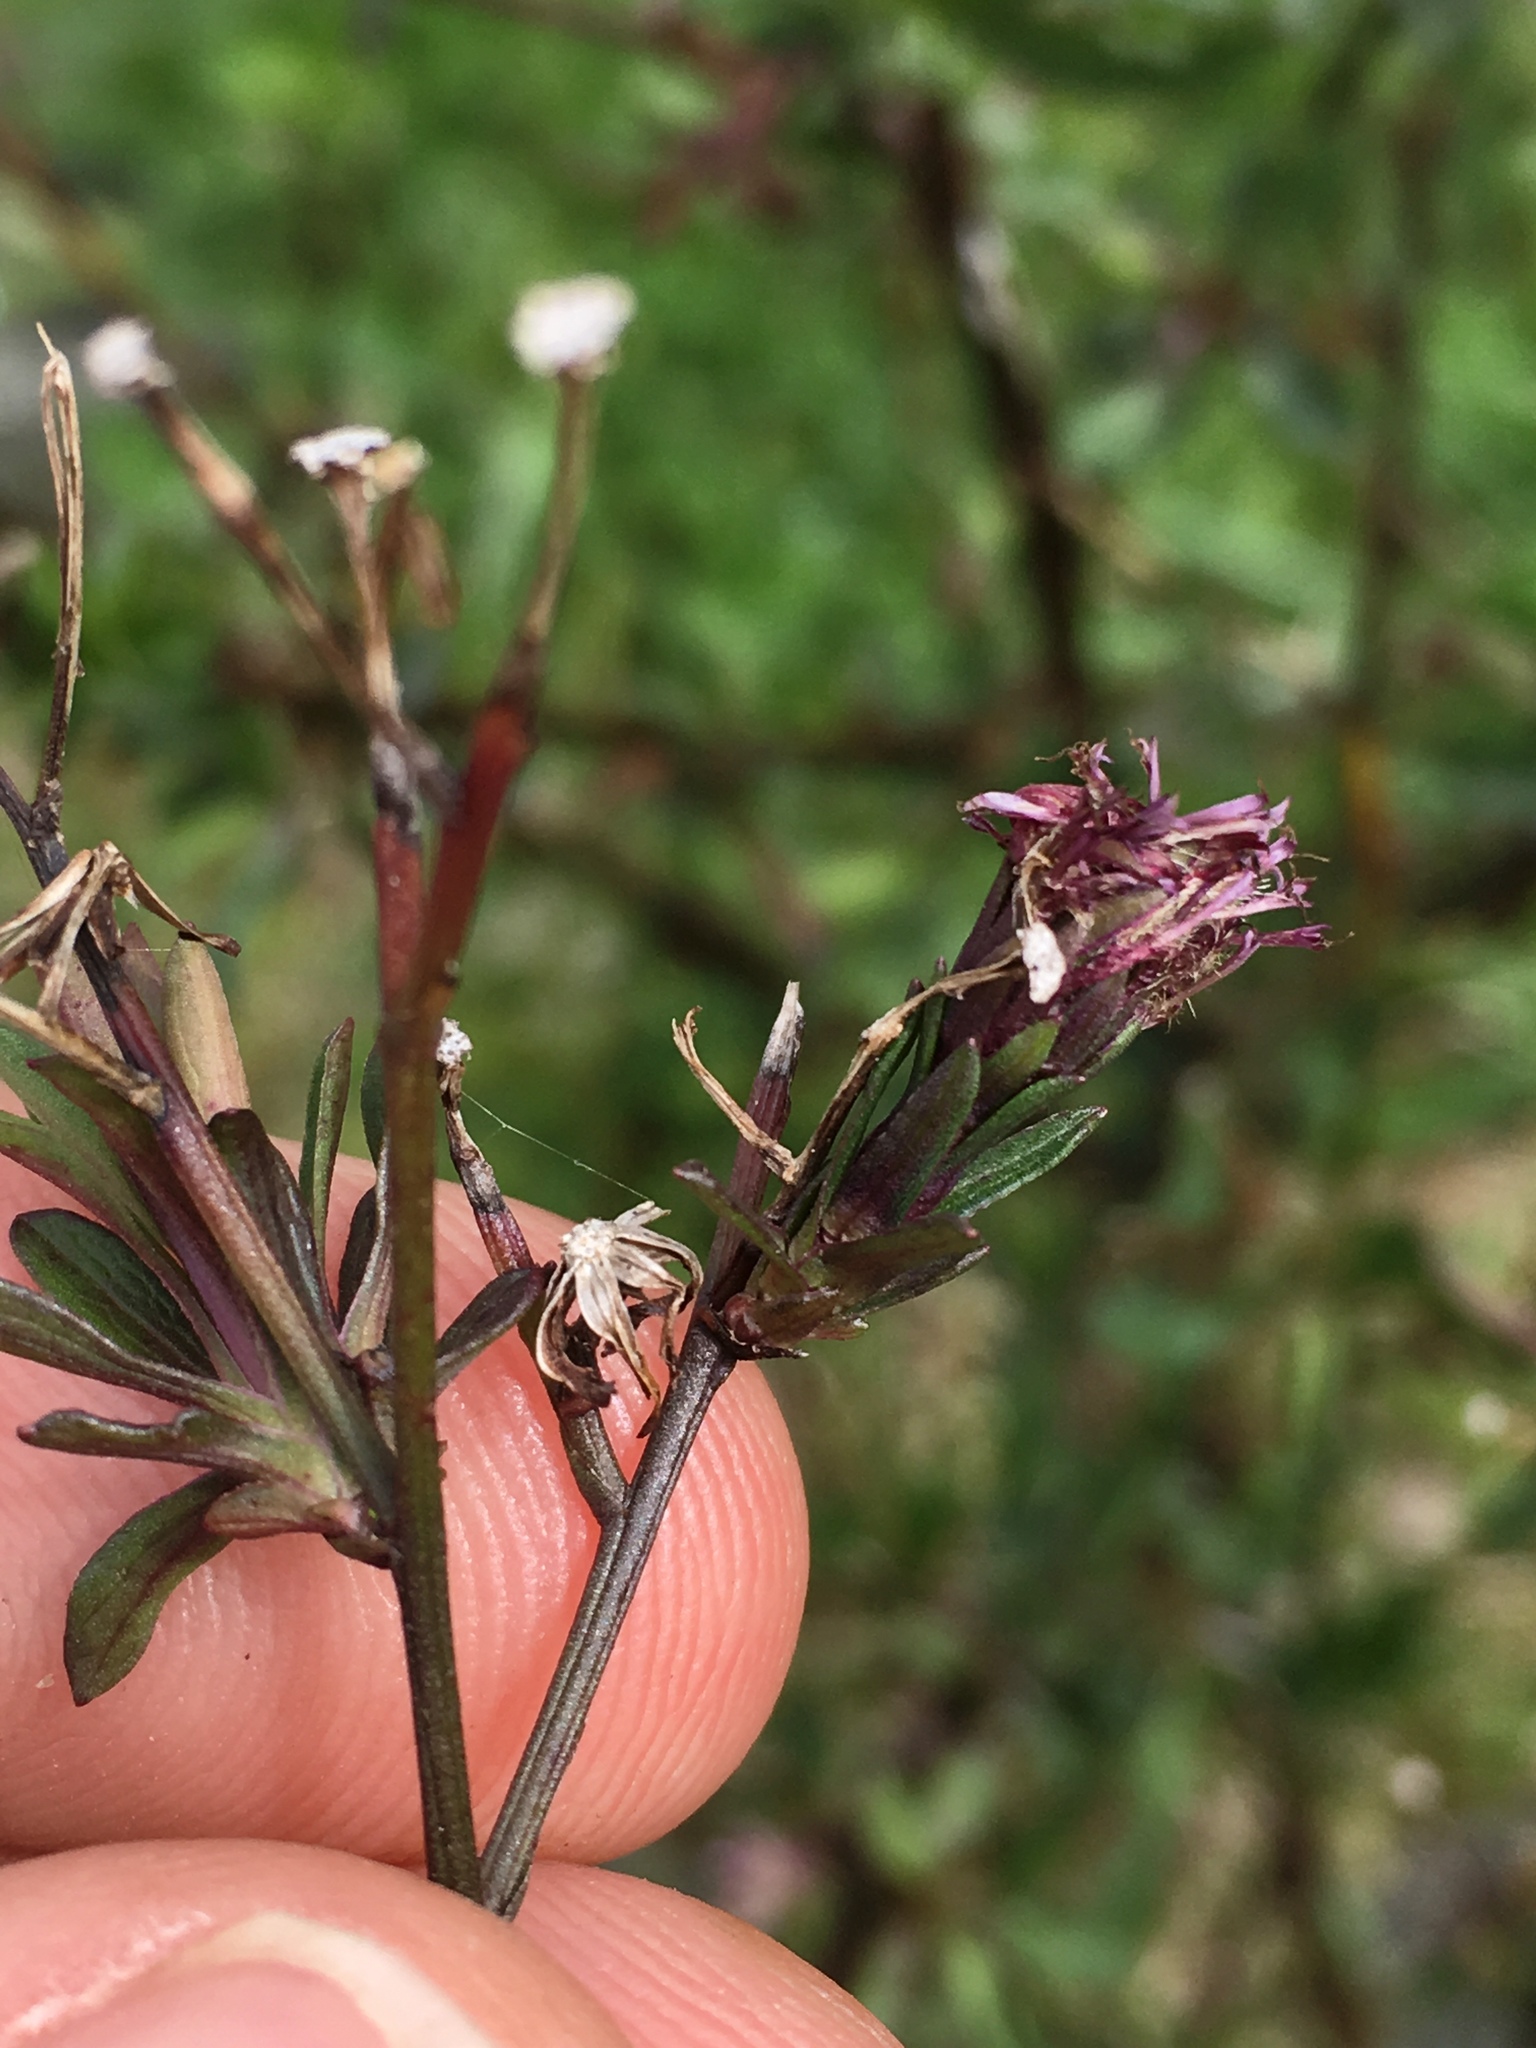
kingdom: Plantae
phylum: Tracheophyta
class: Magnoliopsida
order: Asterales
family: Asteraceae
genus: Symphyotrichum
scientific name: Symphyotrichum subulatum
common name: Annual saltmarsh aster
